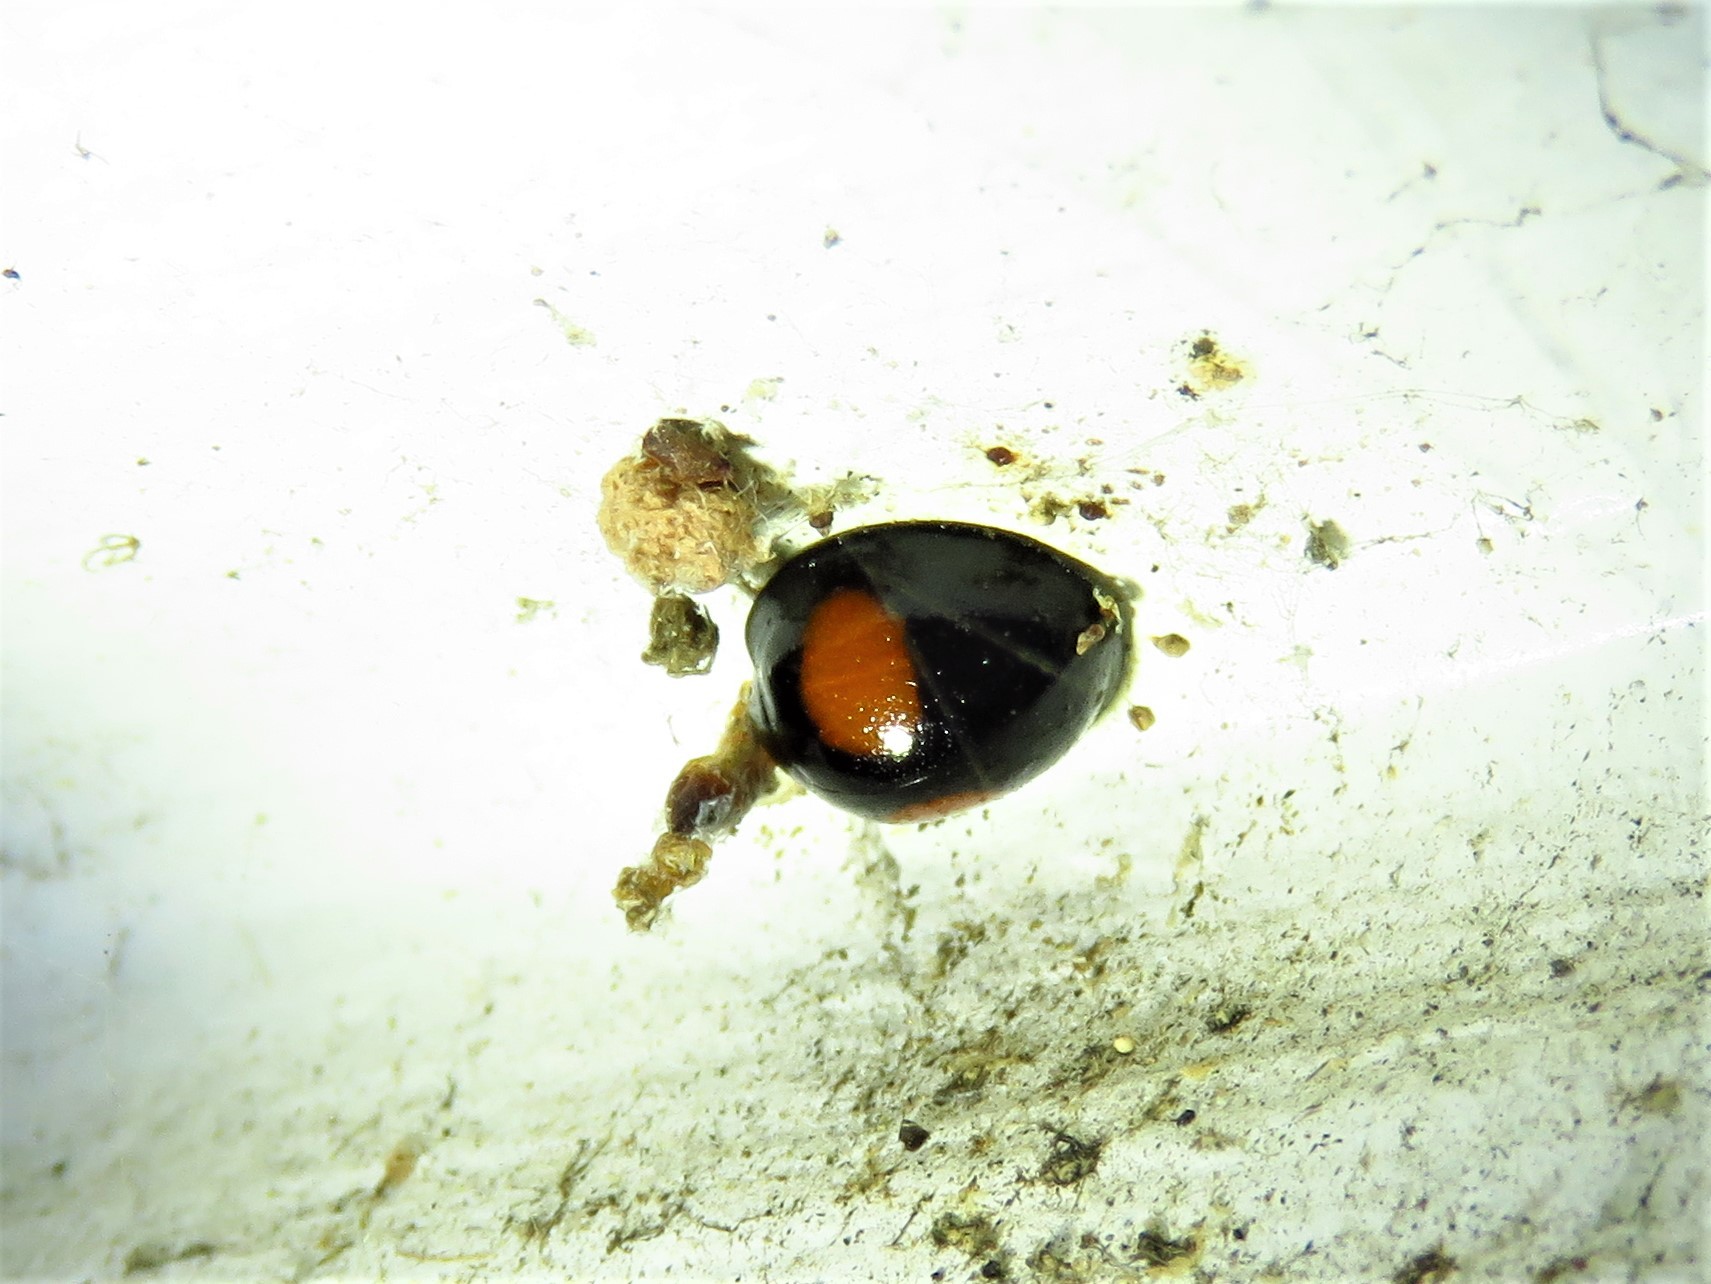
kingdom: Animalia
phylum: Arthropoda
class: Insecta
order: Coleoptera
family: Coccinellidae
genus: Chilocorus
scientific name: Chilocorus cacti
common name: Cactus lady beetle
